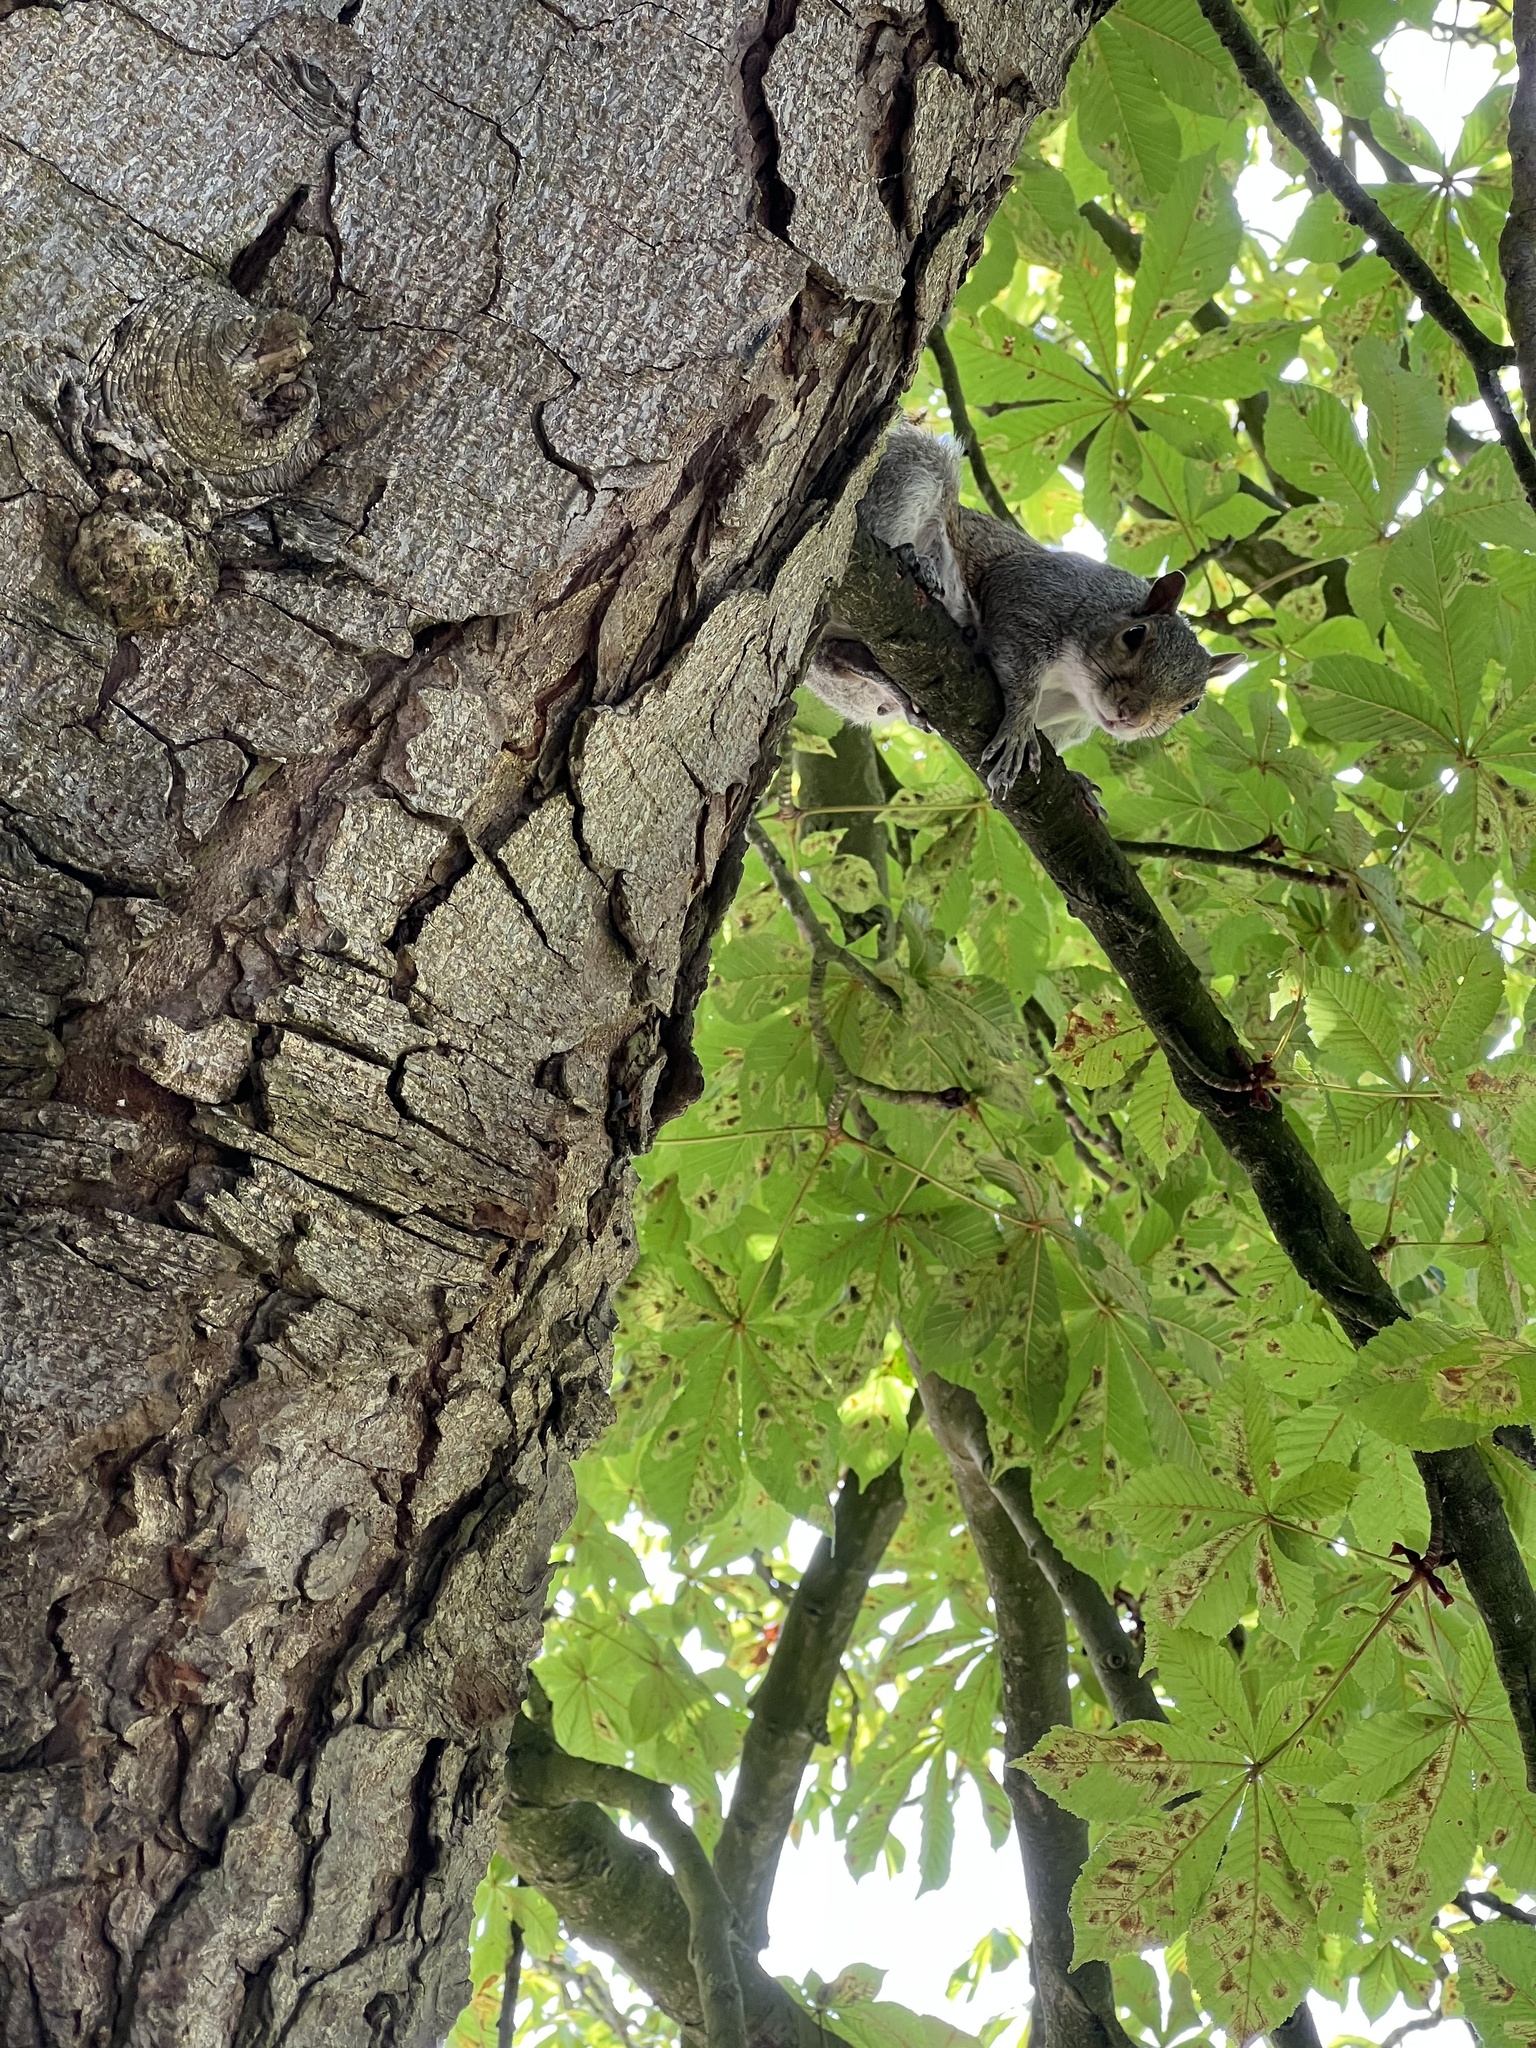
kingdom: Animalia
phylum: Chordata
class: Mammalia
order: Rodentia
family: Sciuridae
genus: Sciurus
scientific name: Sciurus carolinensis
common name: Eastern gray squirrel
